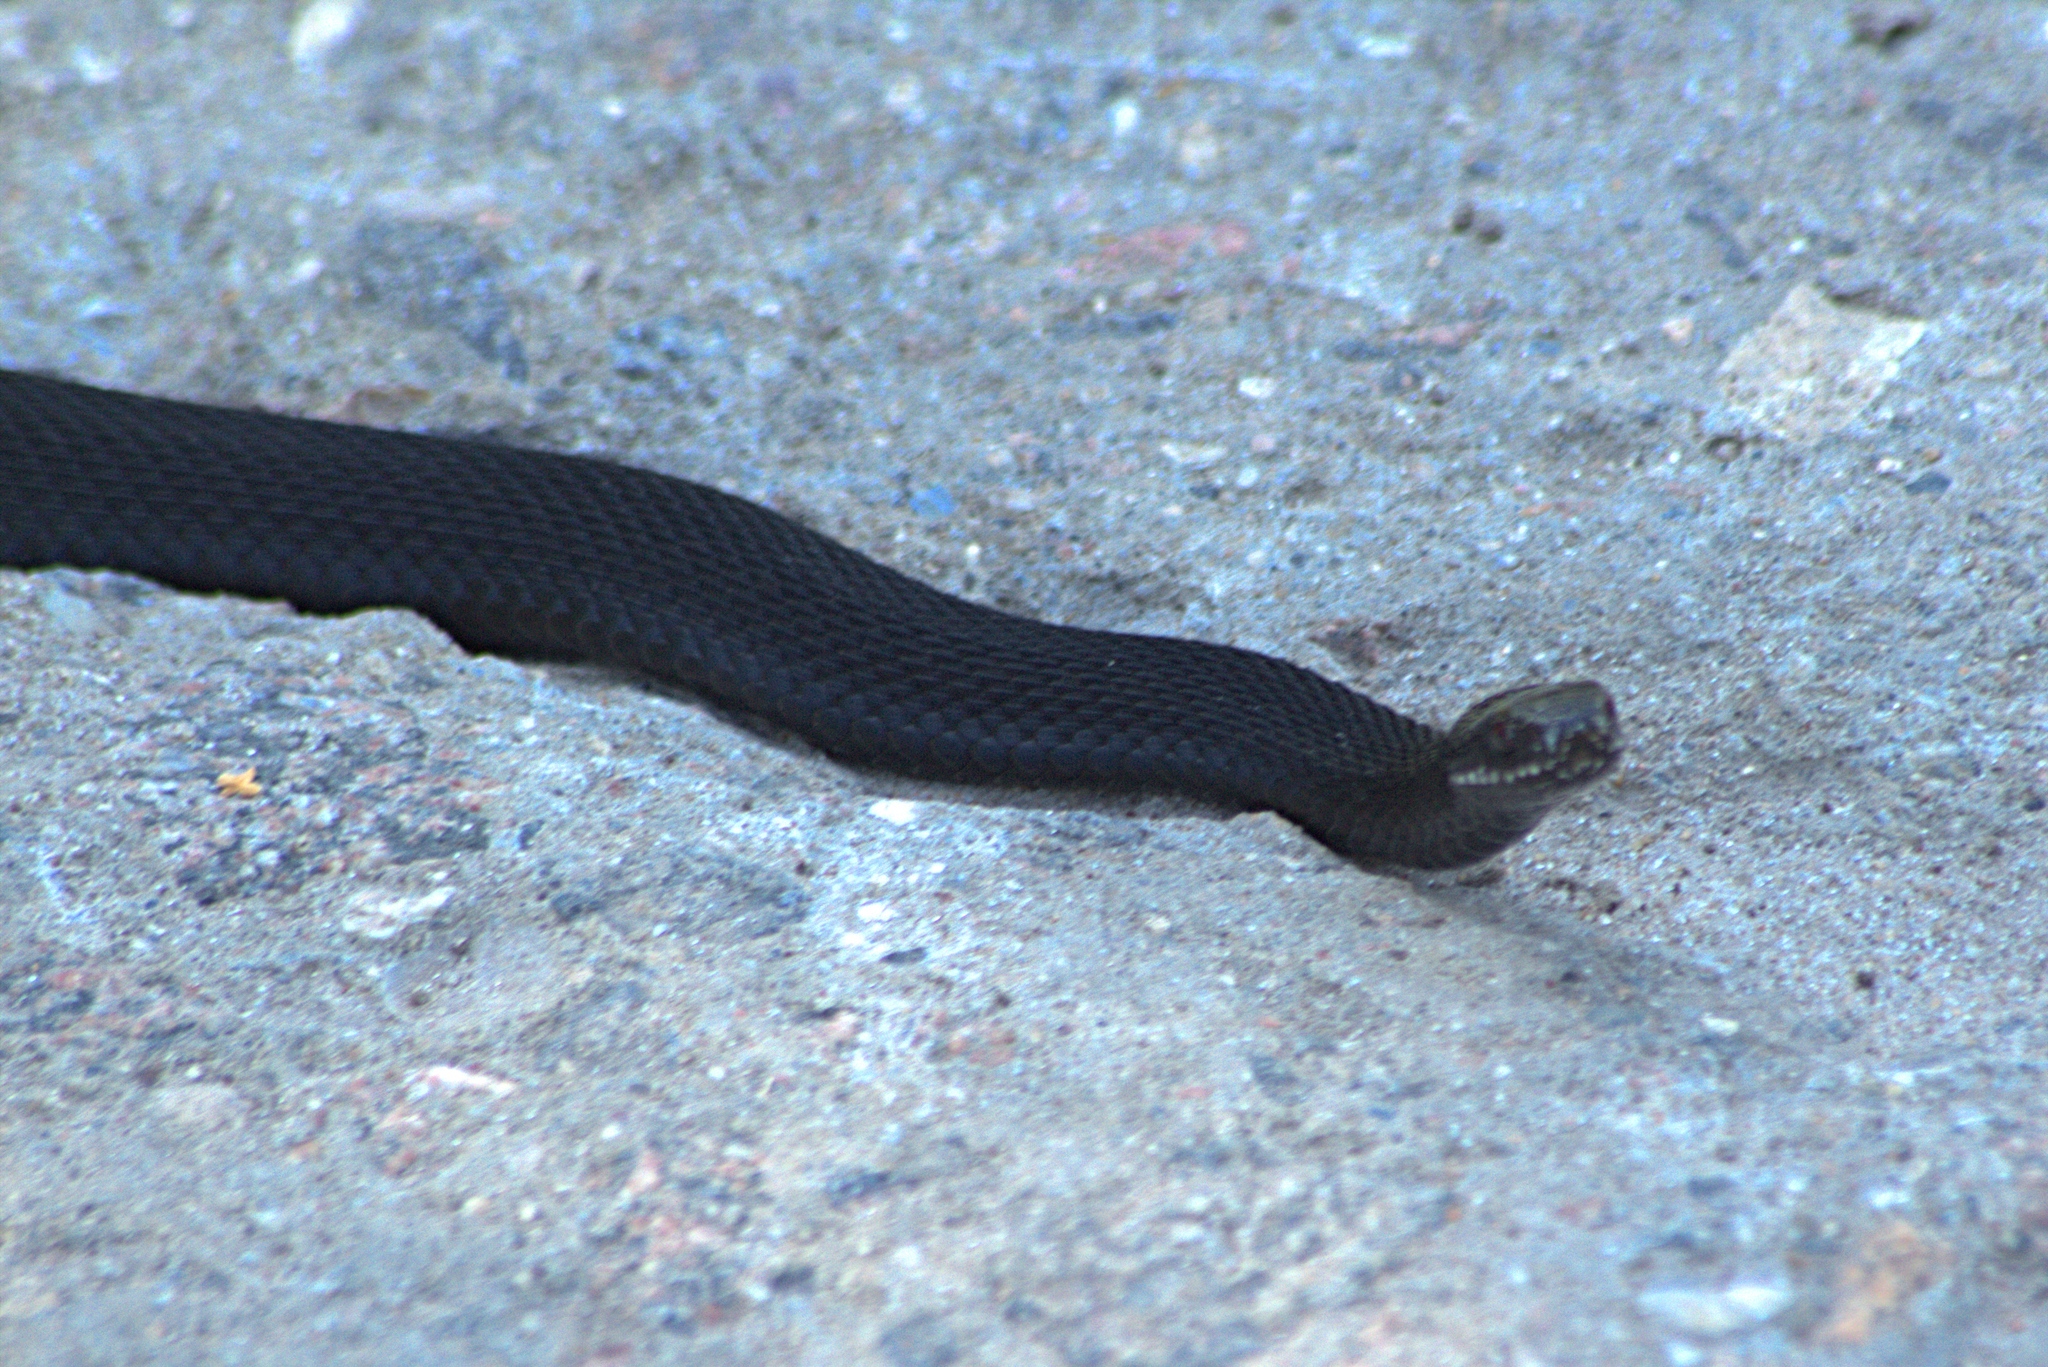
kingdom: Animalia
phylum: Chordata
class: Squamata
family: Viperidae
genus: Vipera
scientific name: Vipera berus
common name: Adder
